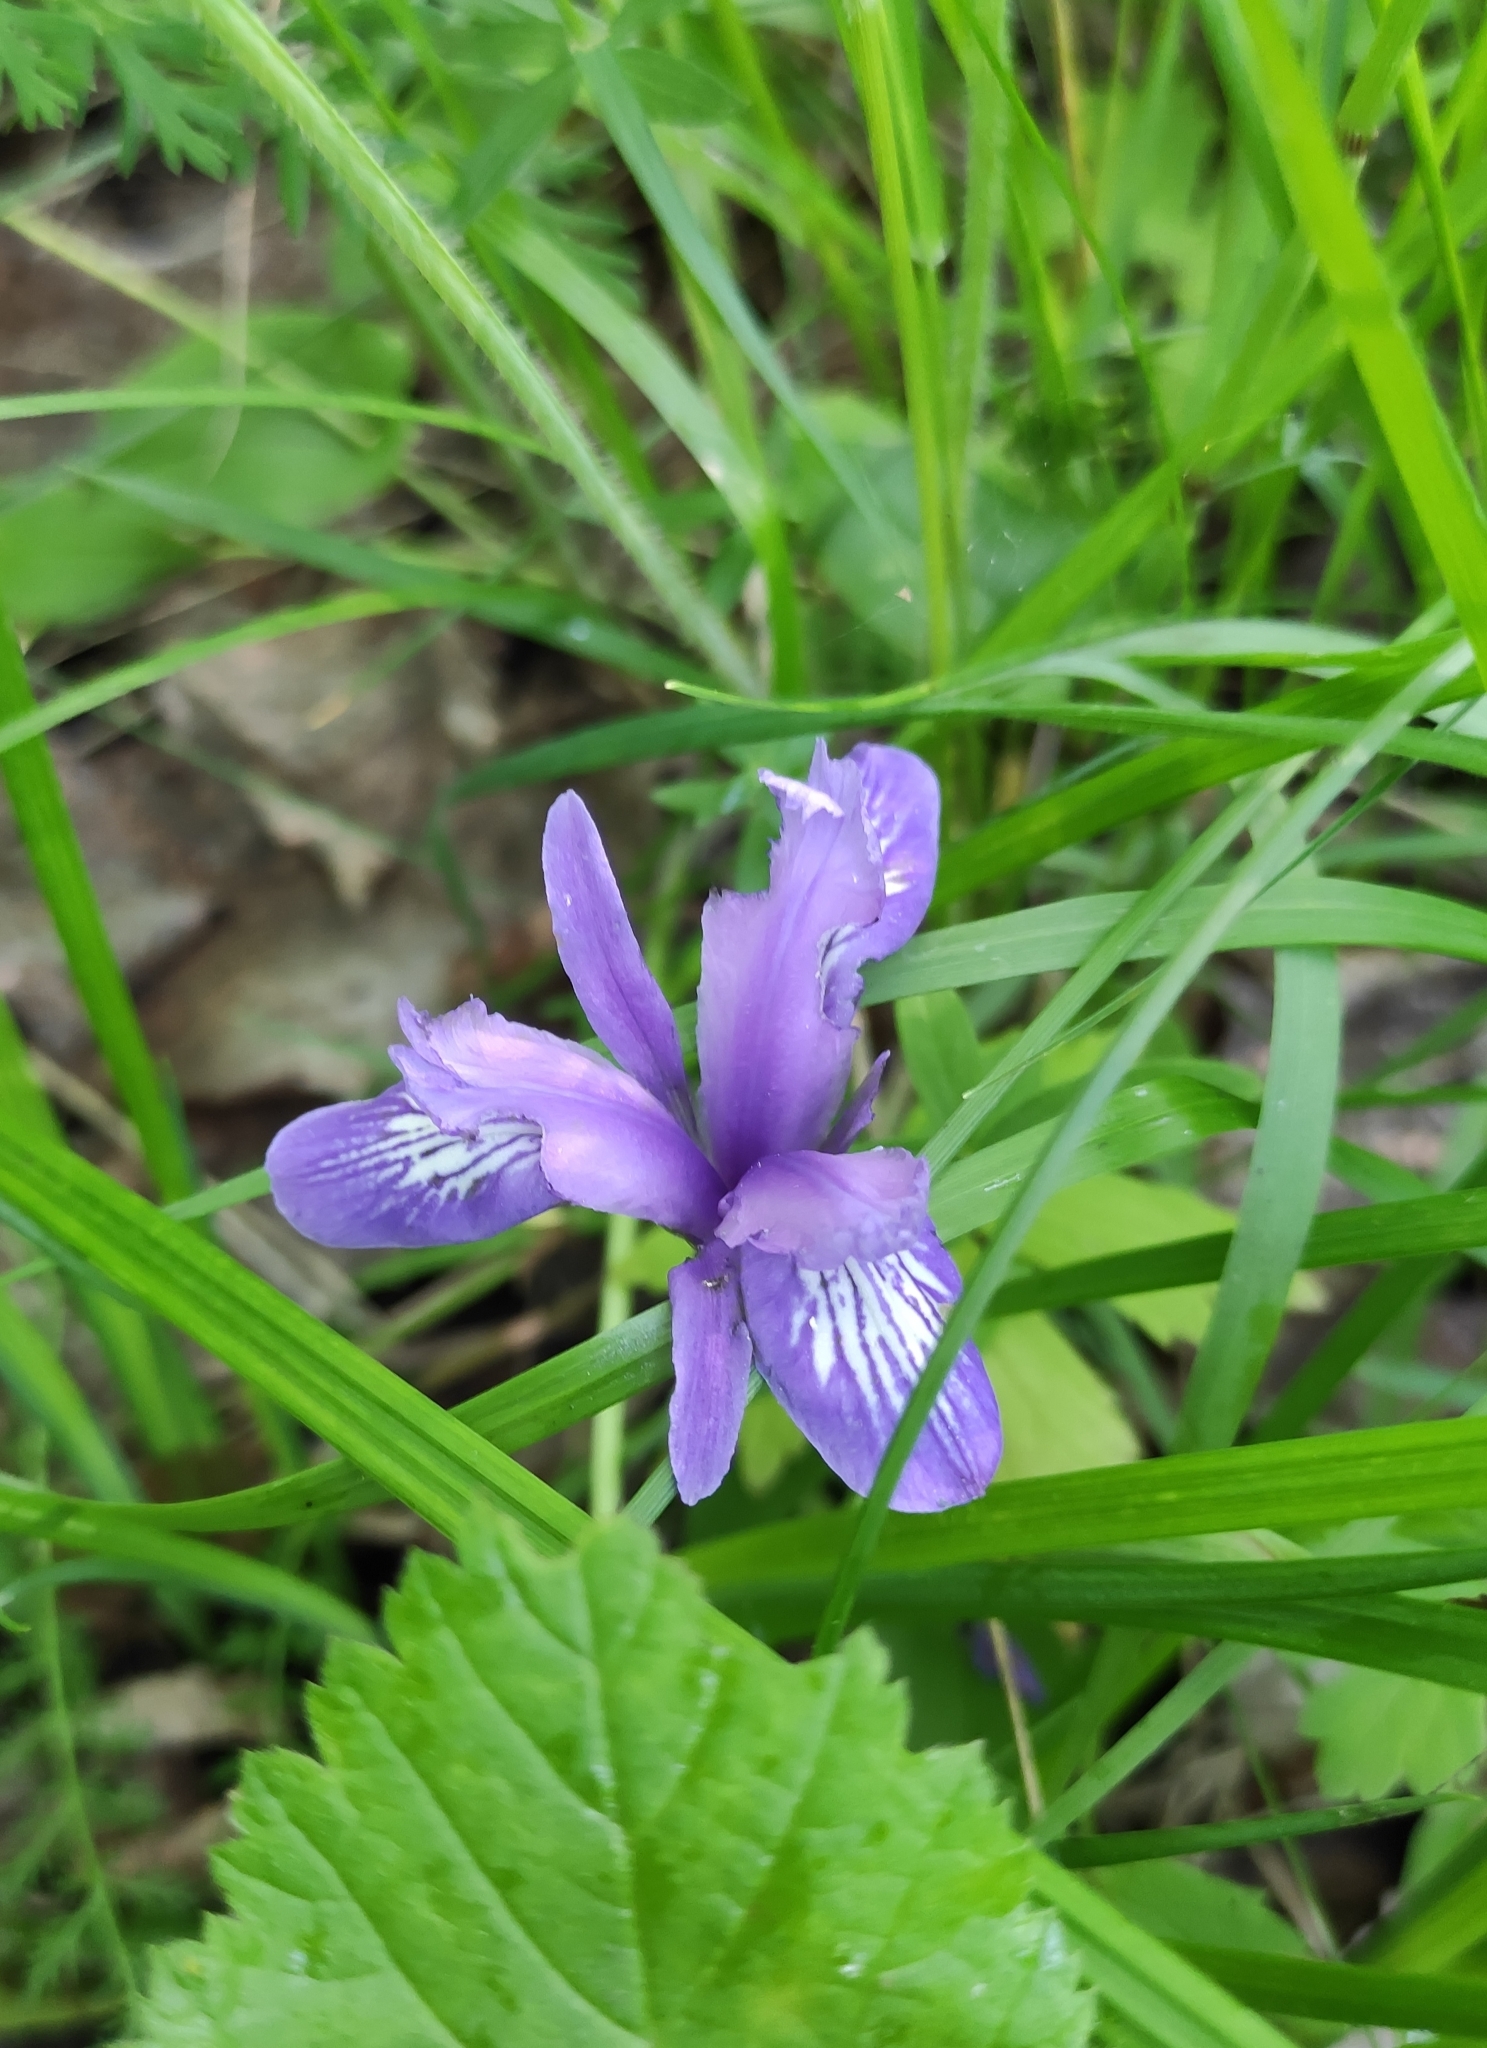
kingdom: Plantae
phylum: Tracheophyta
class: Liliopsida
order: Asparagales
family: Iridaceae
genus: Iris
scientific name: Iris ruthenica
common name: Purple-bract iris
